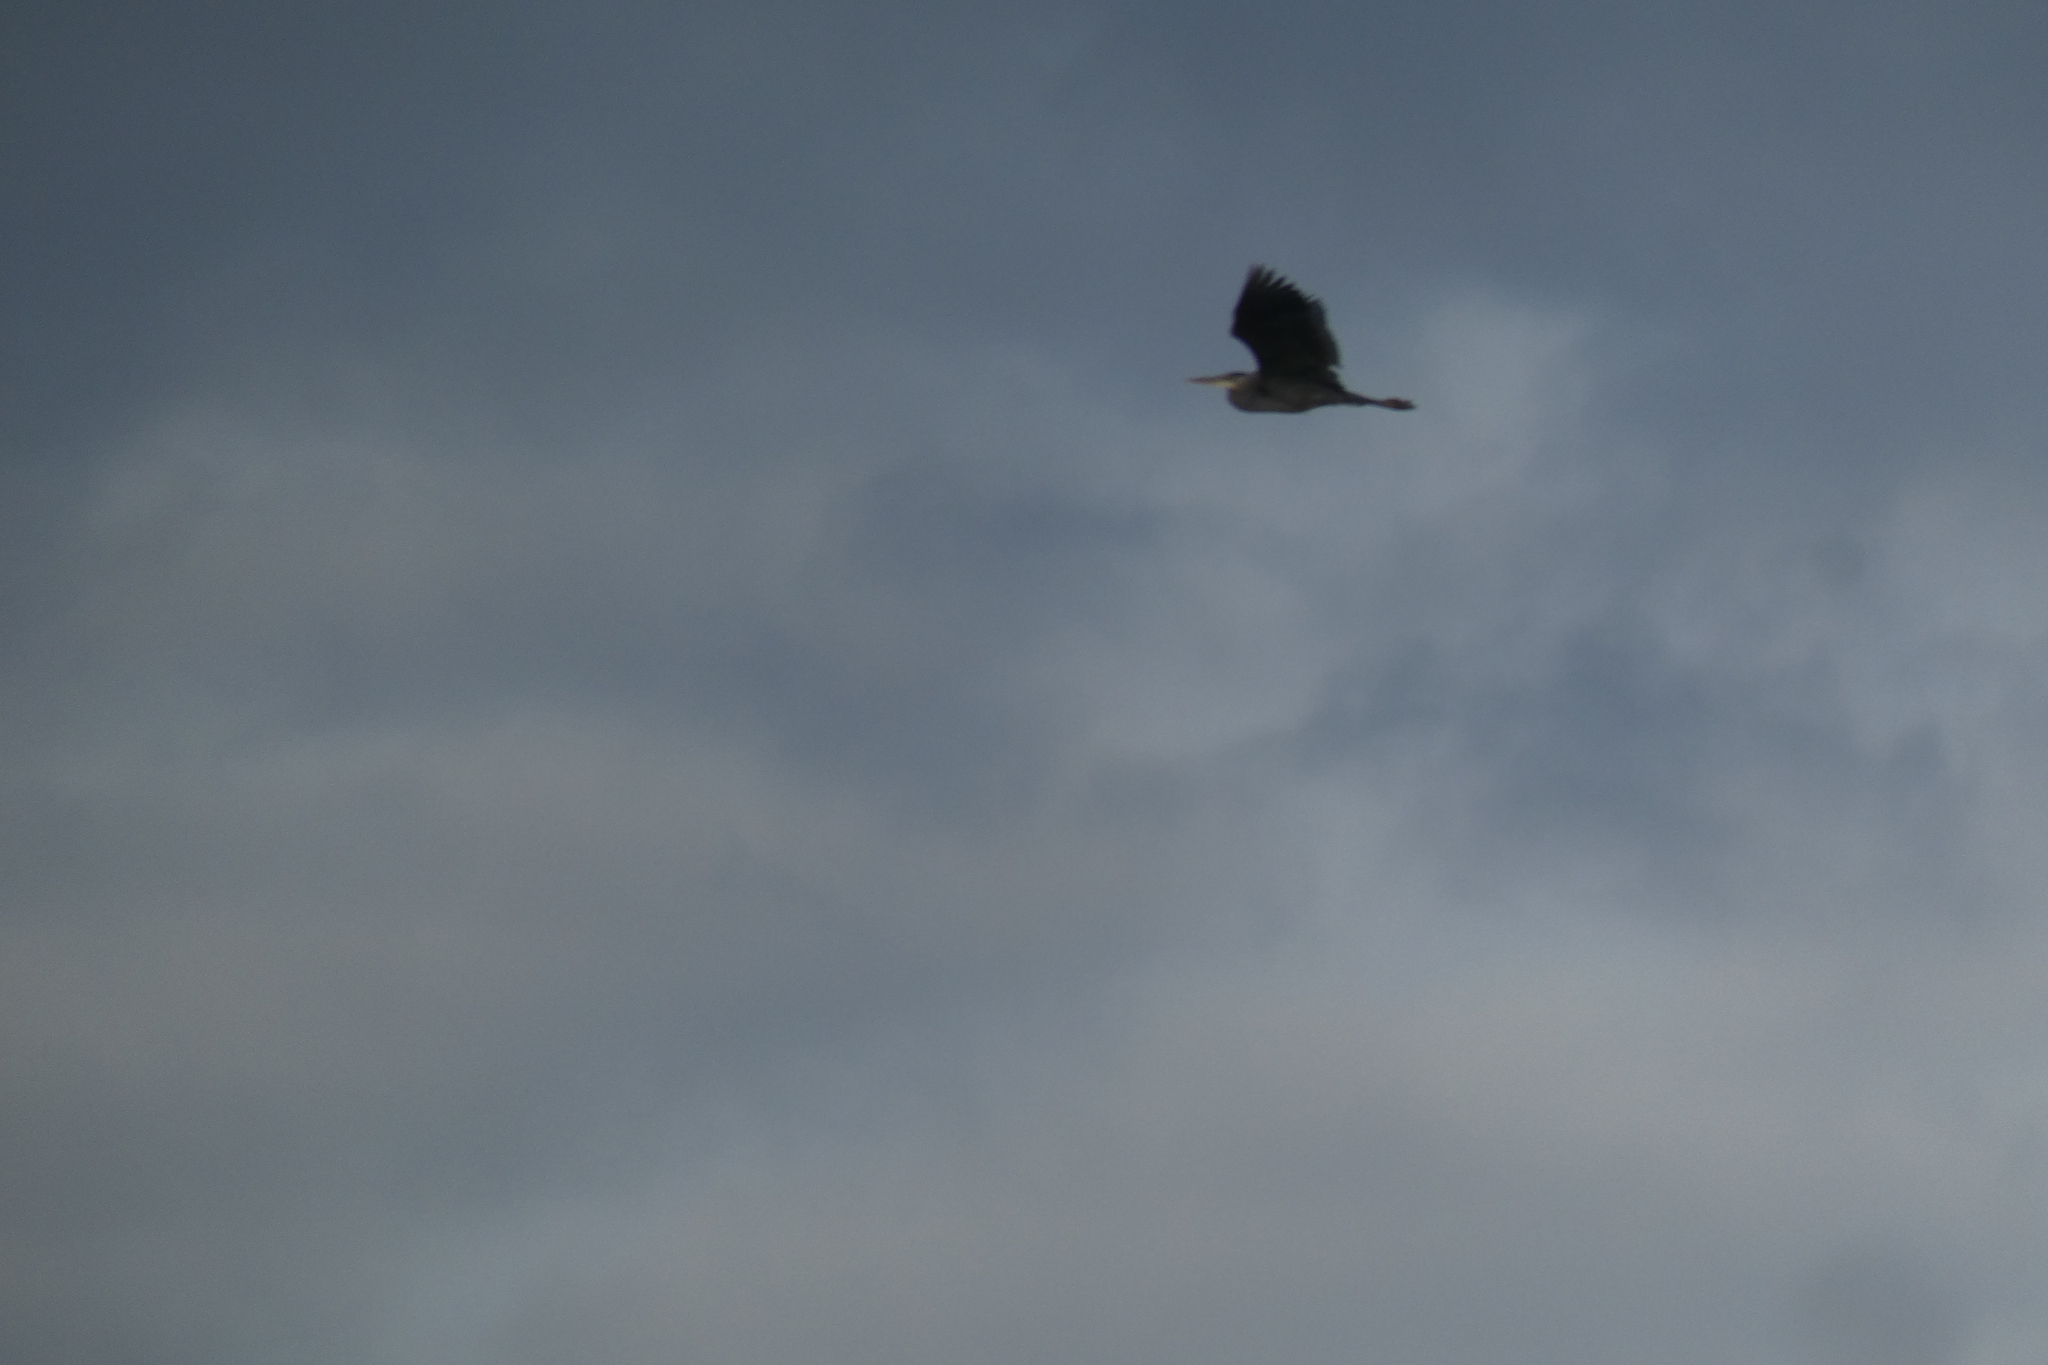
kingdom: Animalia
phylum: Chordata
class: Aves
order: Pelecaniformes
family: Ardeidae
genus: Ardea
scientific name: Ardea herodias
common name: Great blue heron
